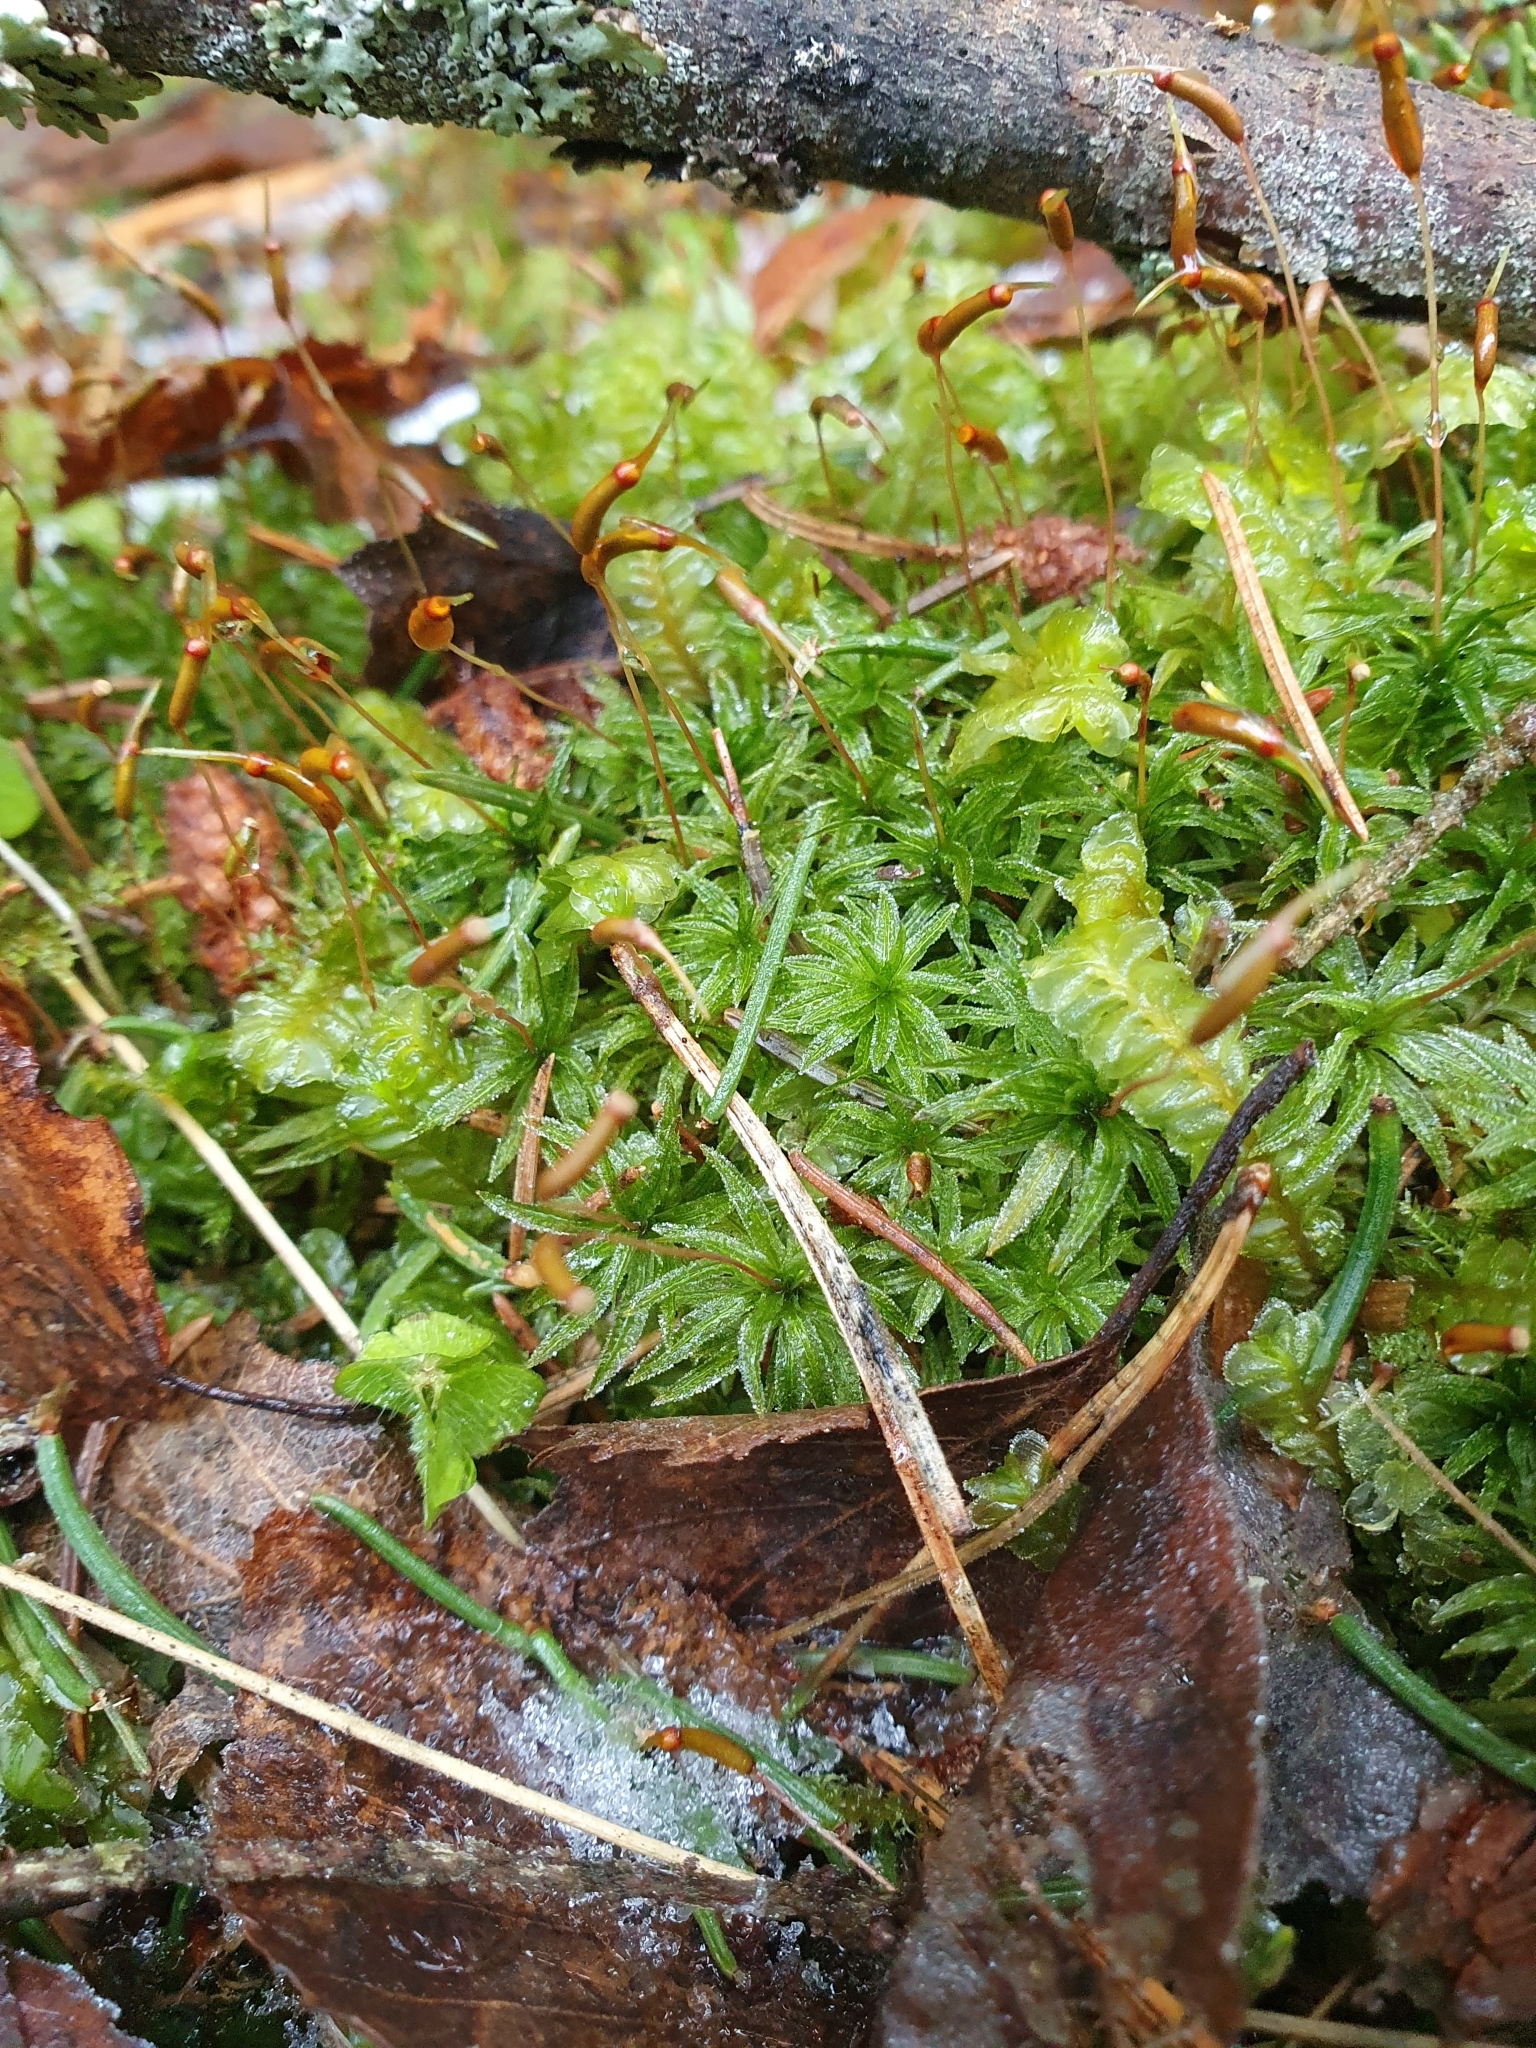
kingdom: Plantae
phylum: Bryophyta
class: Polytrichopsida
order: Polytrichales
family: Polytrichaceae
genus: Atrichum
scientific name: Atrichum undulatum
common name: Common smoothcap
